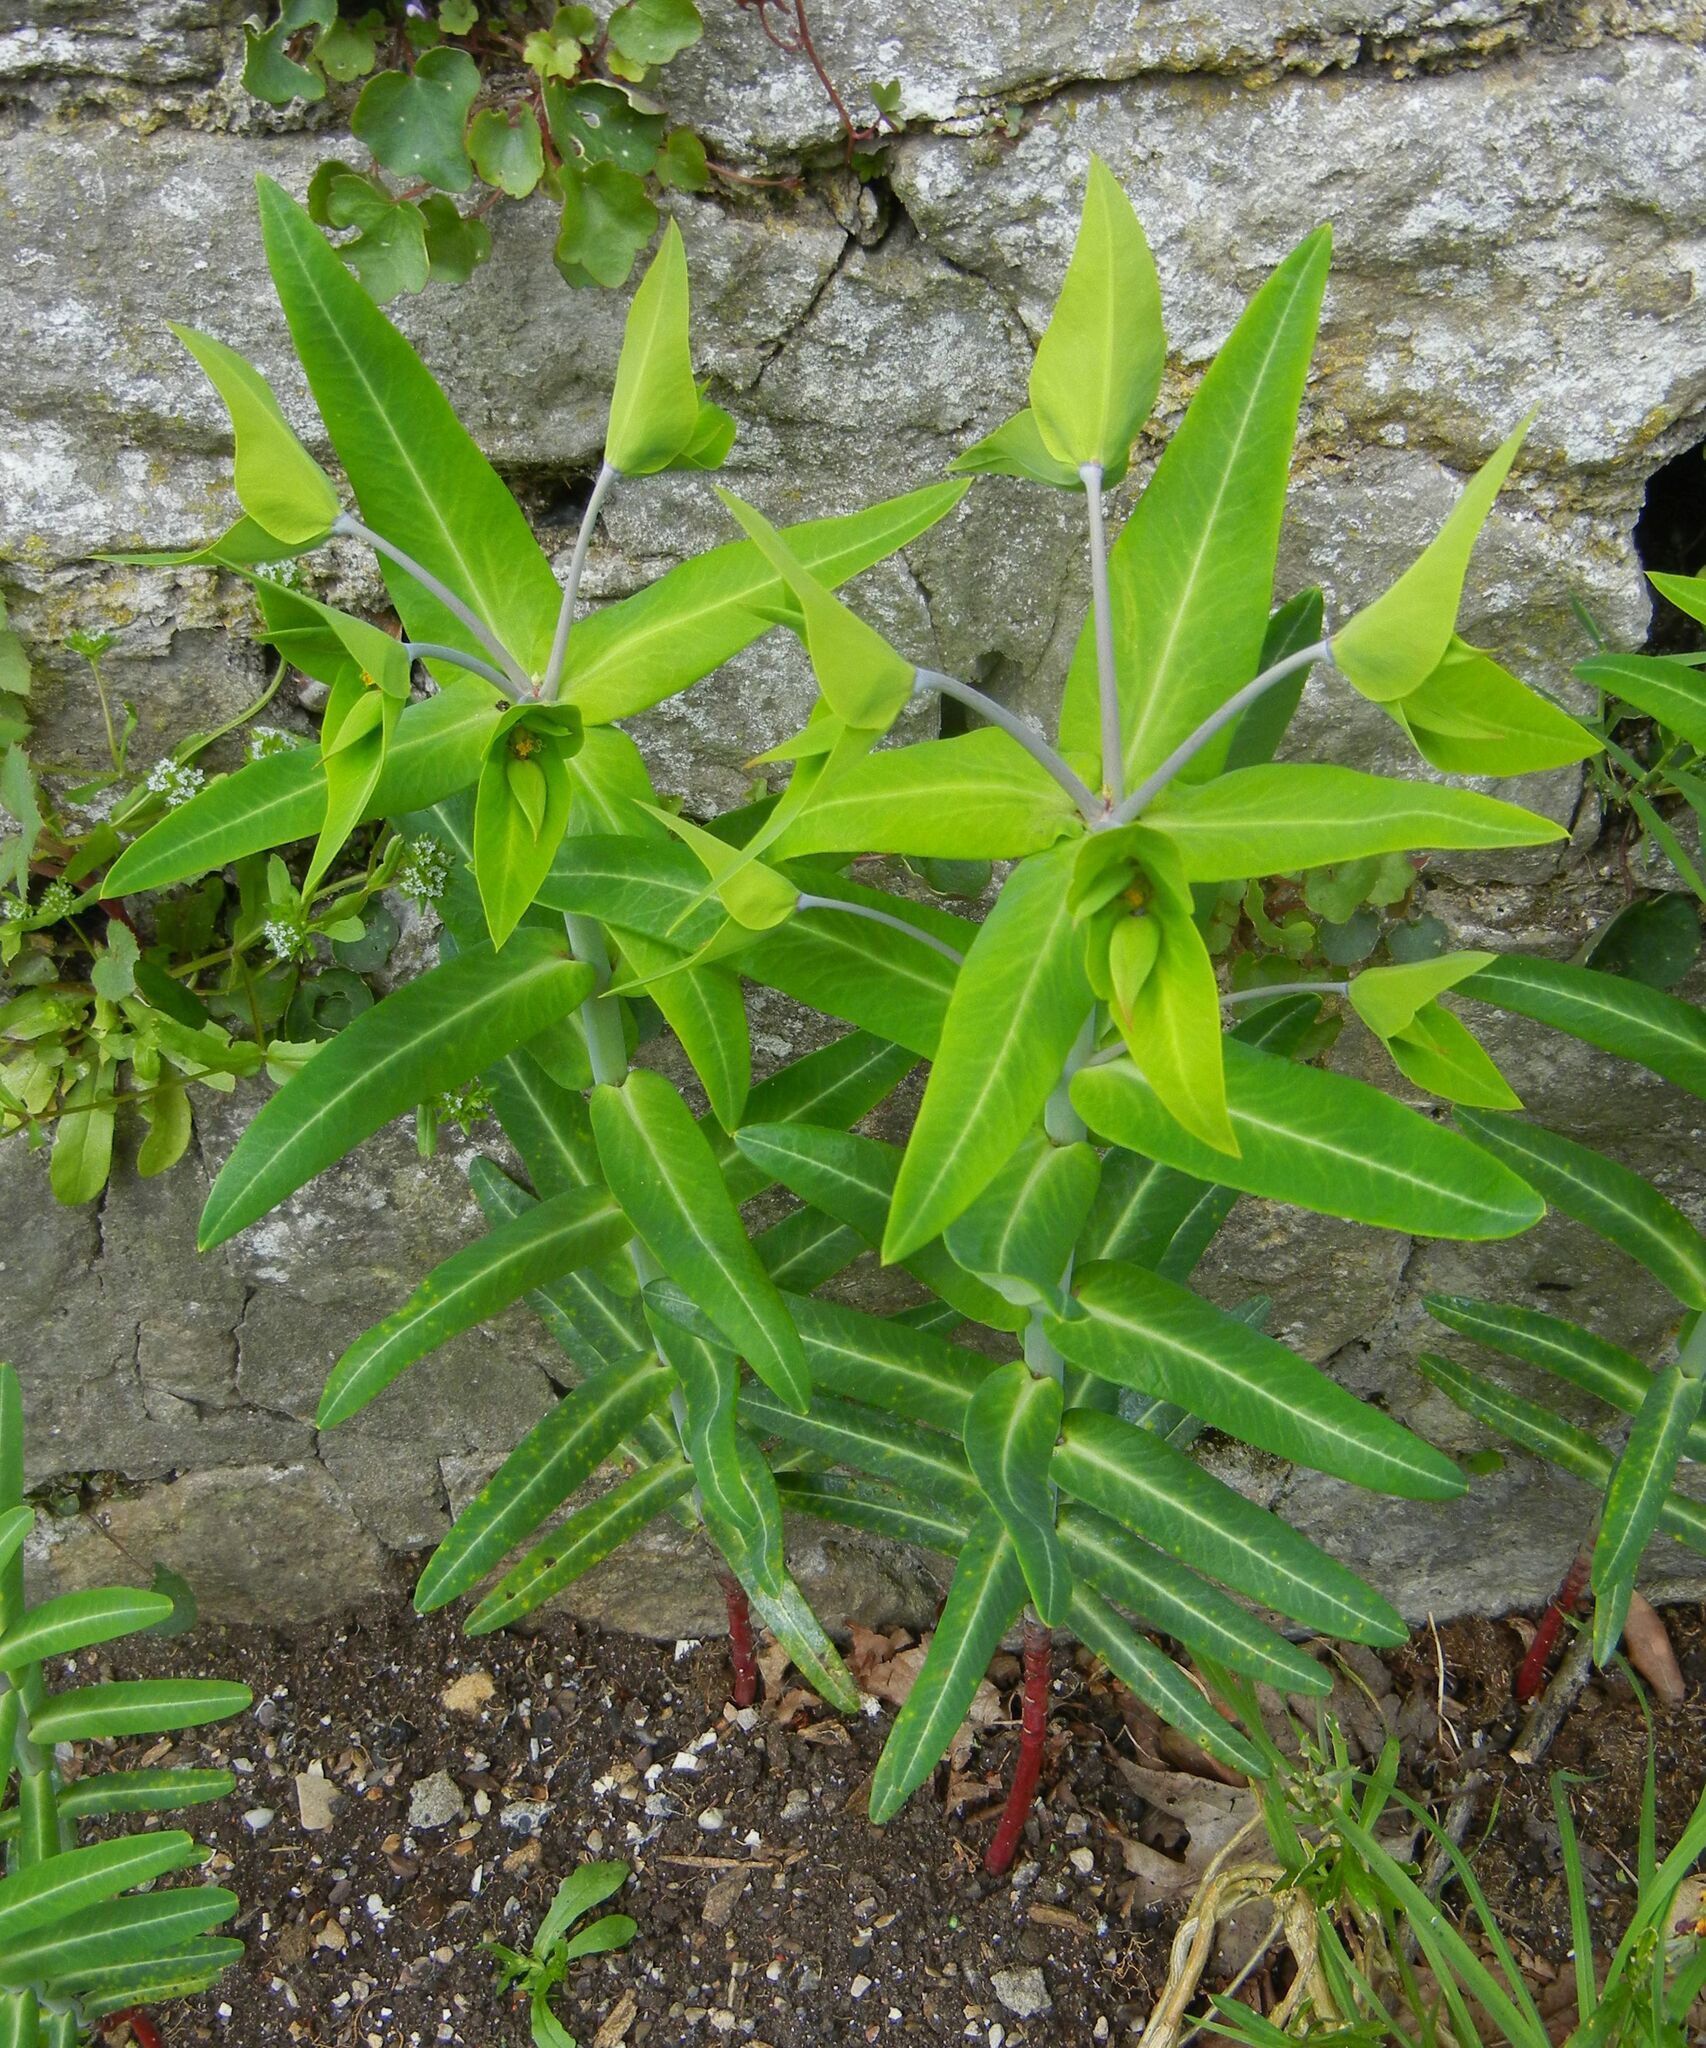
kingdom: Plantae
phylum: Tracheophyta
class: Magnoliopsida
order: Malpighiales
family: Euphorbiaceae
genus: Euphorbia
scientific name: Euphorbia lathyris
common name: Caper spurge
